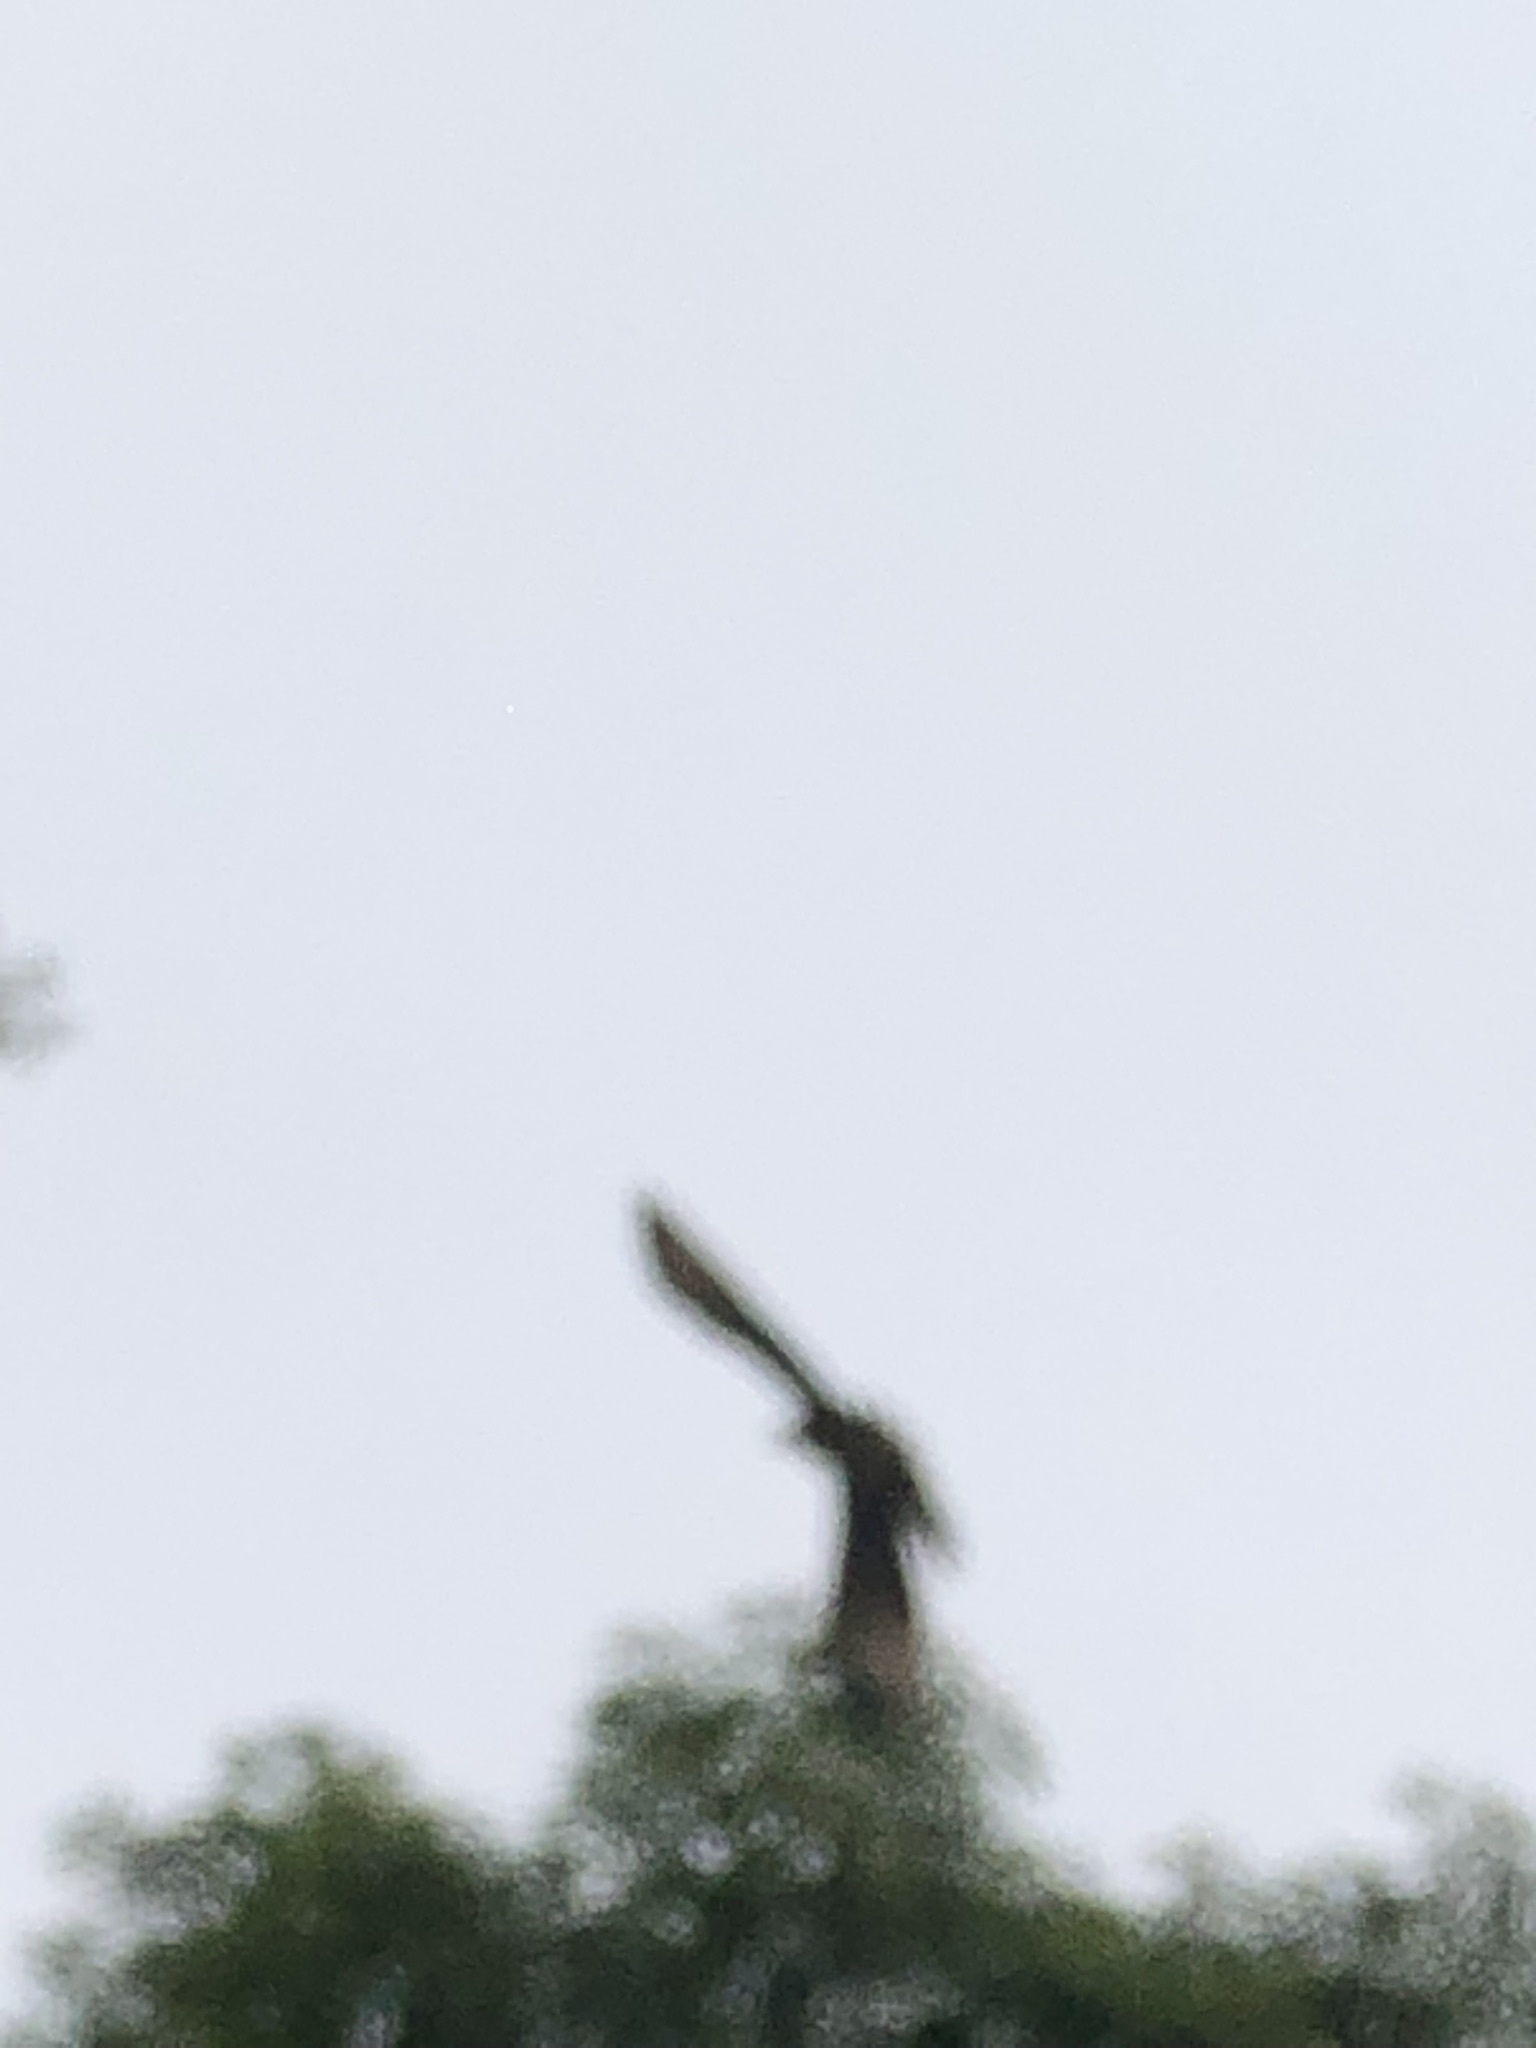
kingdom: Animalia
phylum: Chordata
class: Aves
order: Accipitriformes
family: Accipitridae
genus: Parabuteo
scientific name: Parabuteo unicinctus
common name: Harris's hawk
